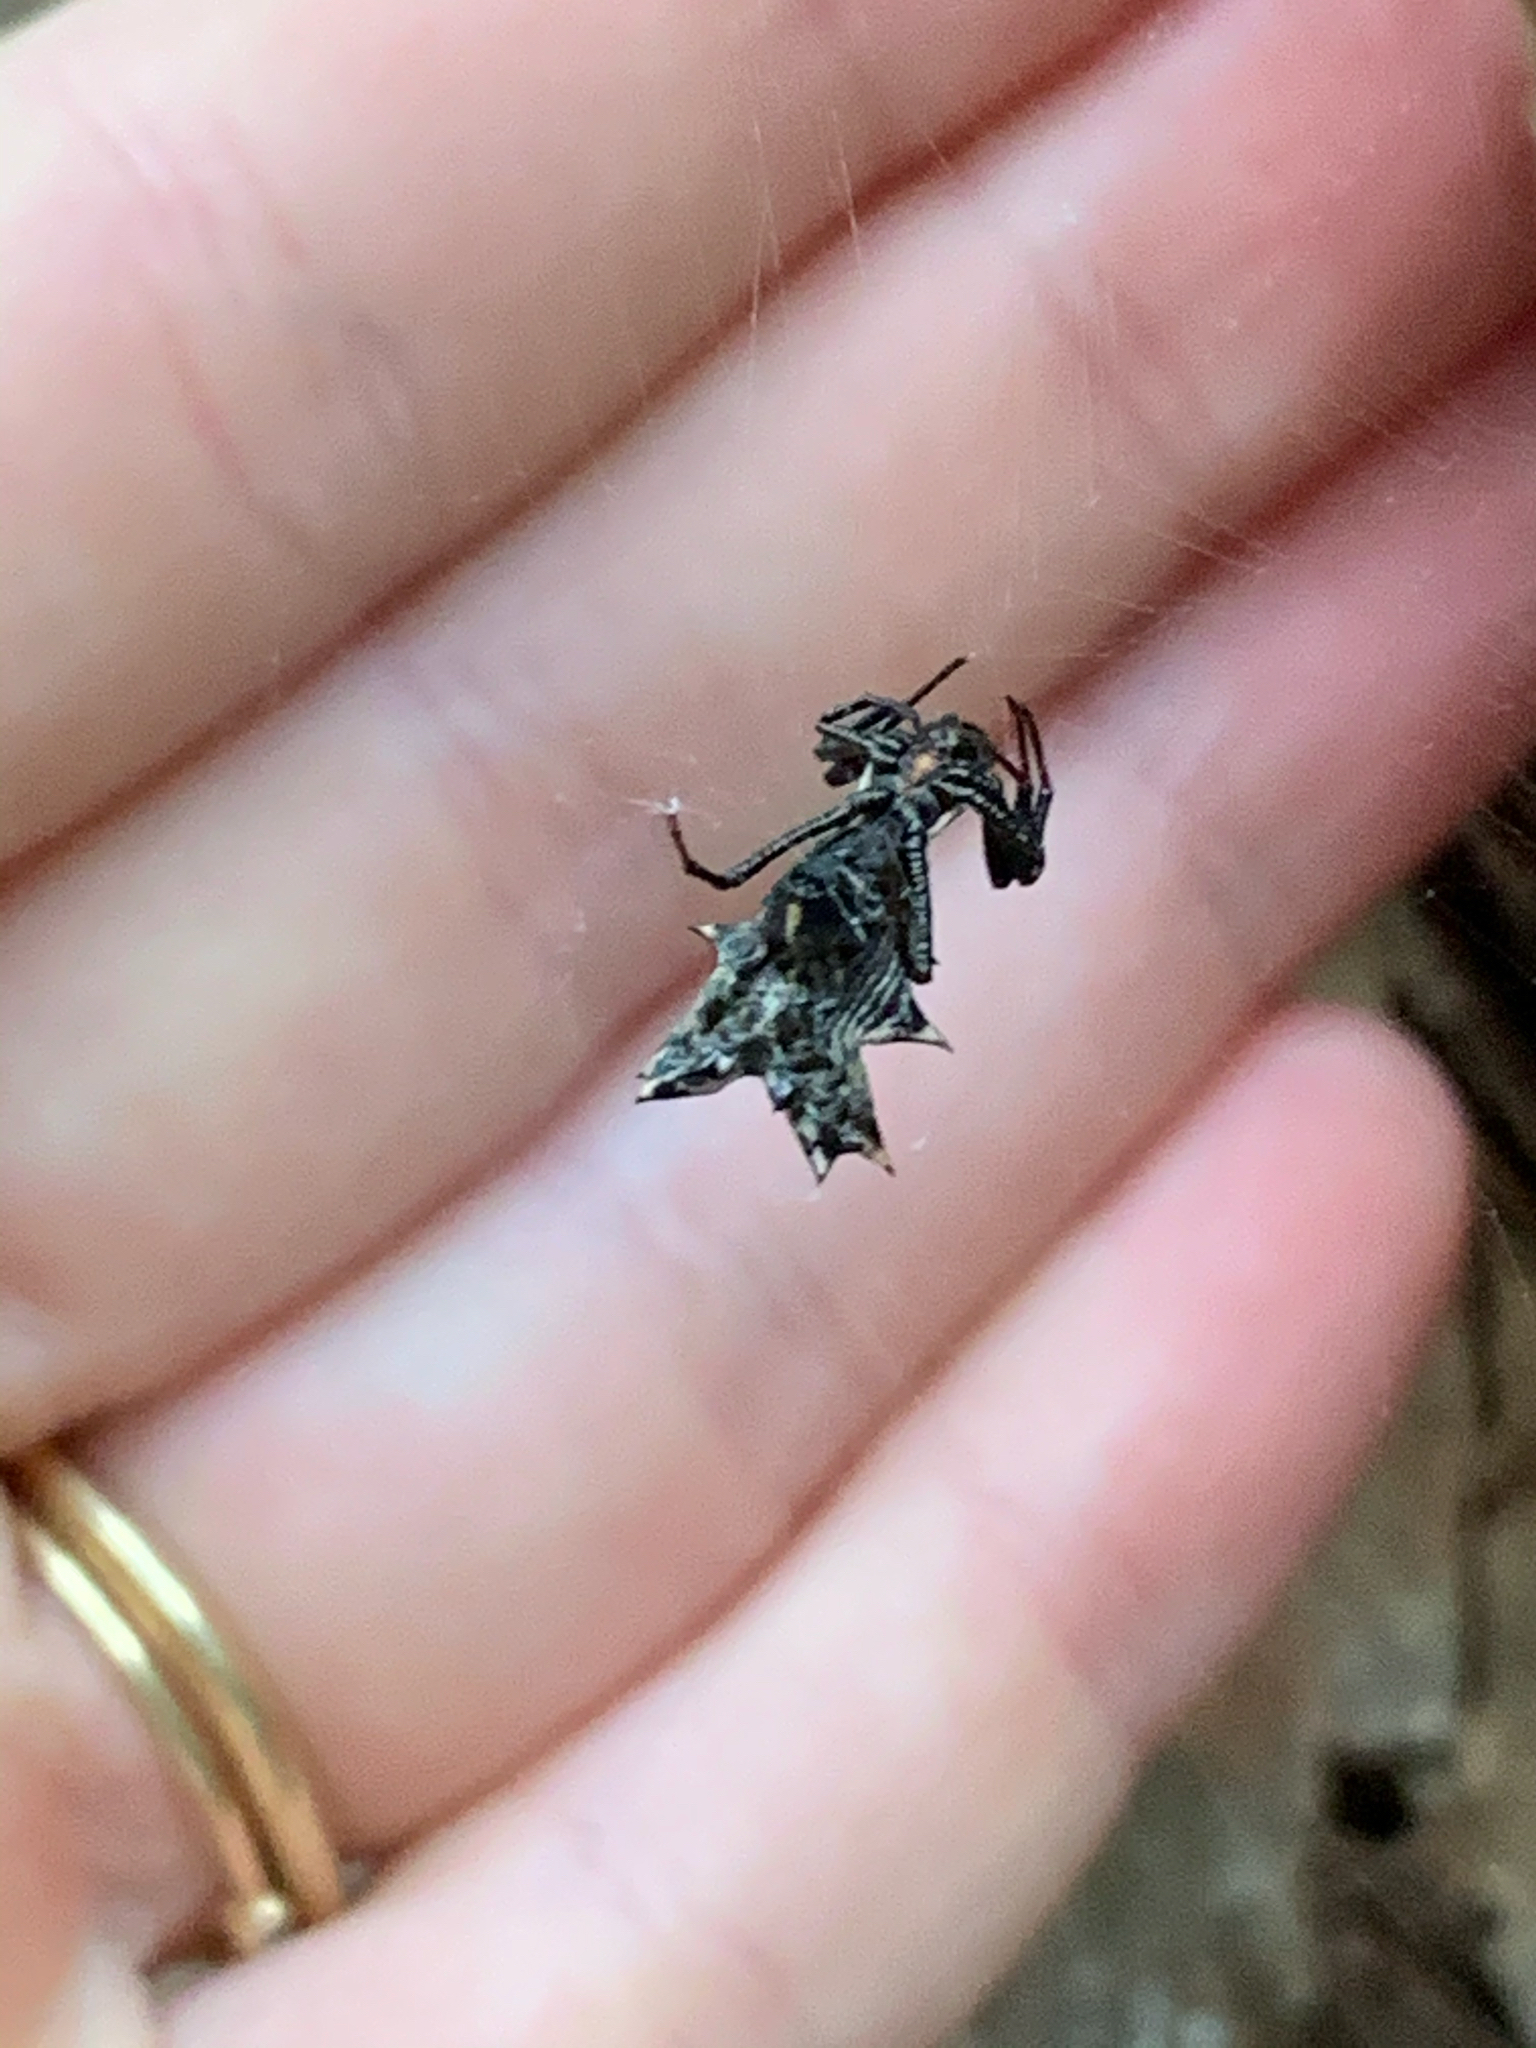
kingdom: Animalia
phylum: Arthropoda
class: Arachnida
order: Araneae
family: Araneidae
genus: Micrathena
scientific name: Micrathena gracilis
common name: Orb weavers
